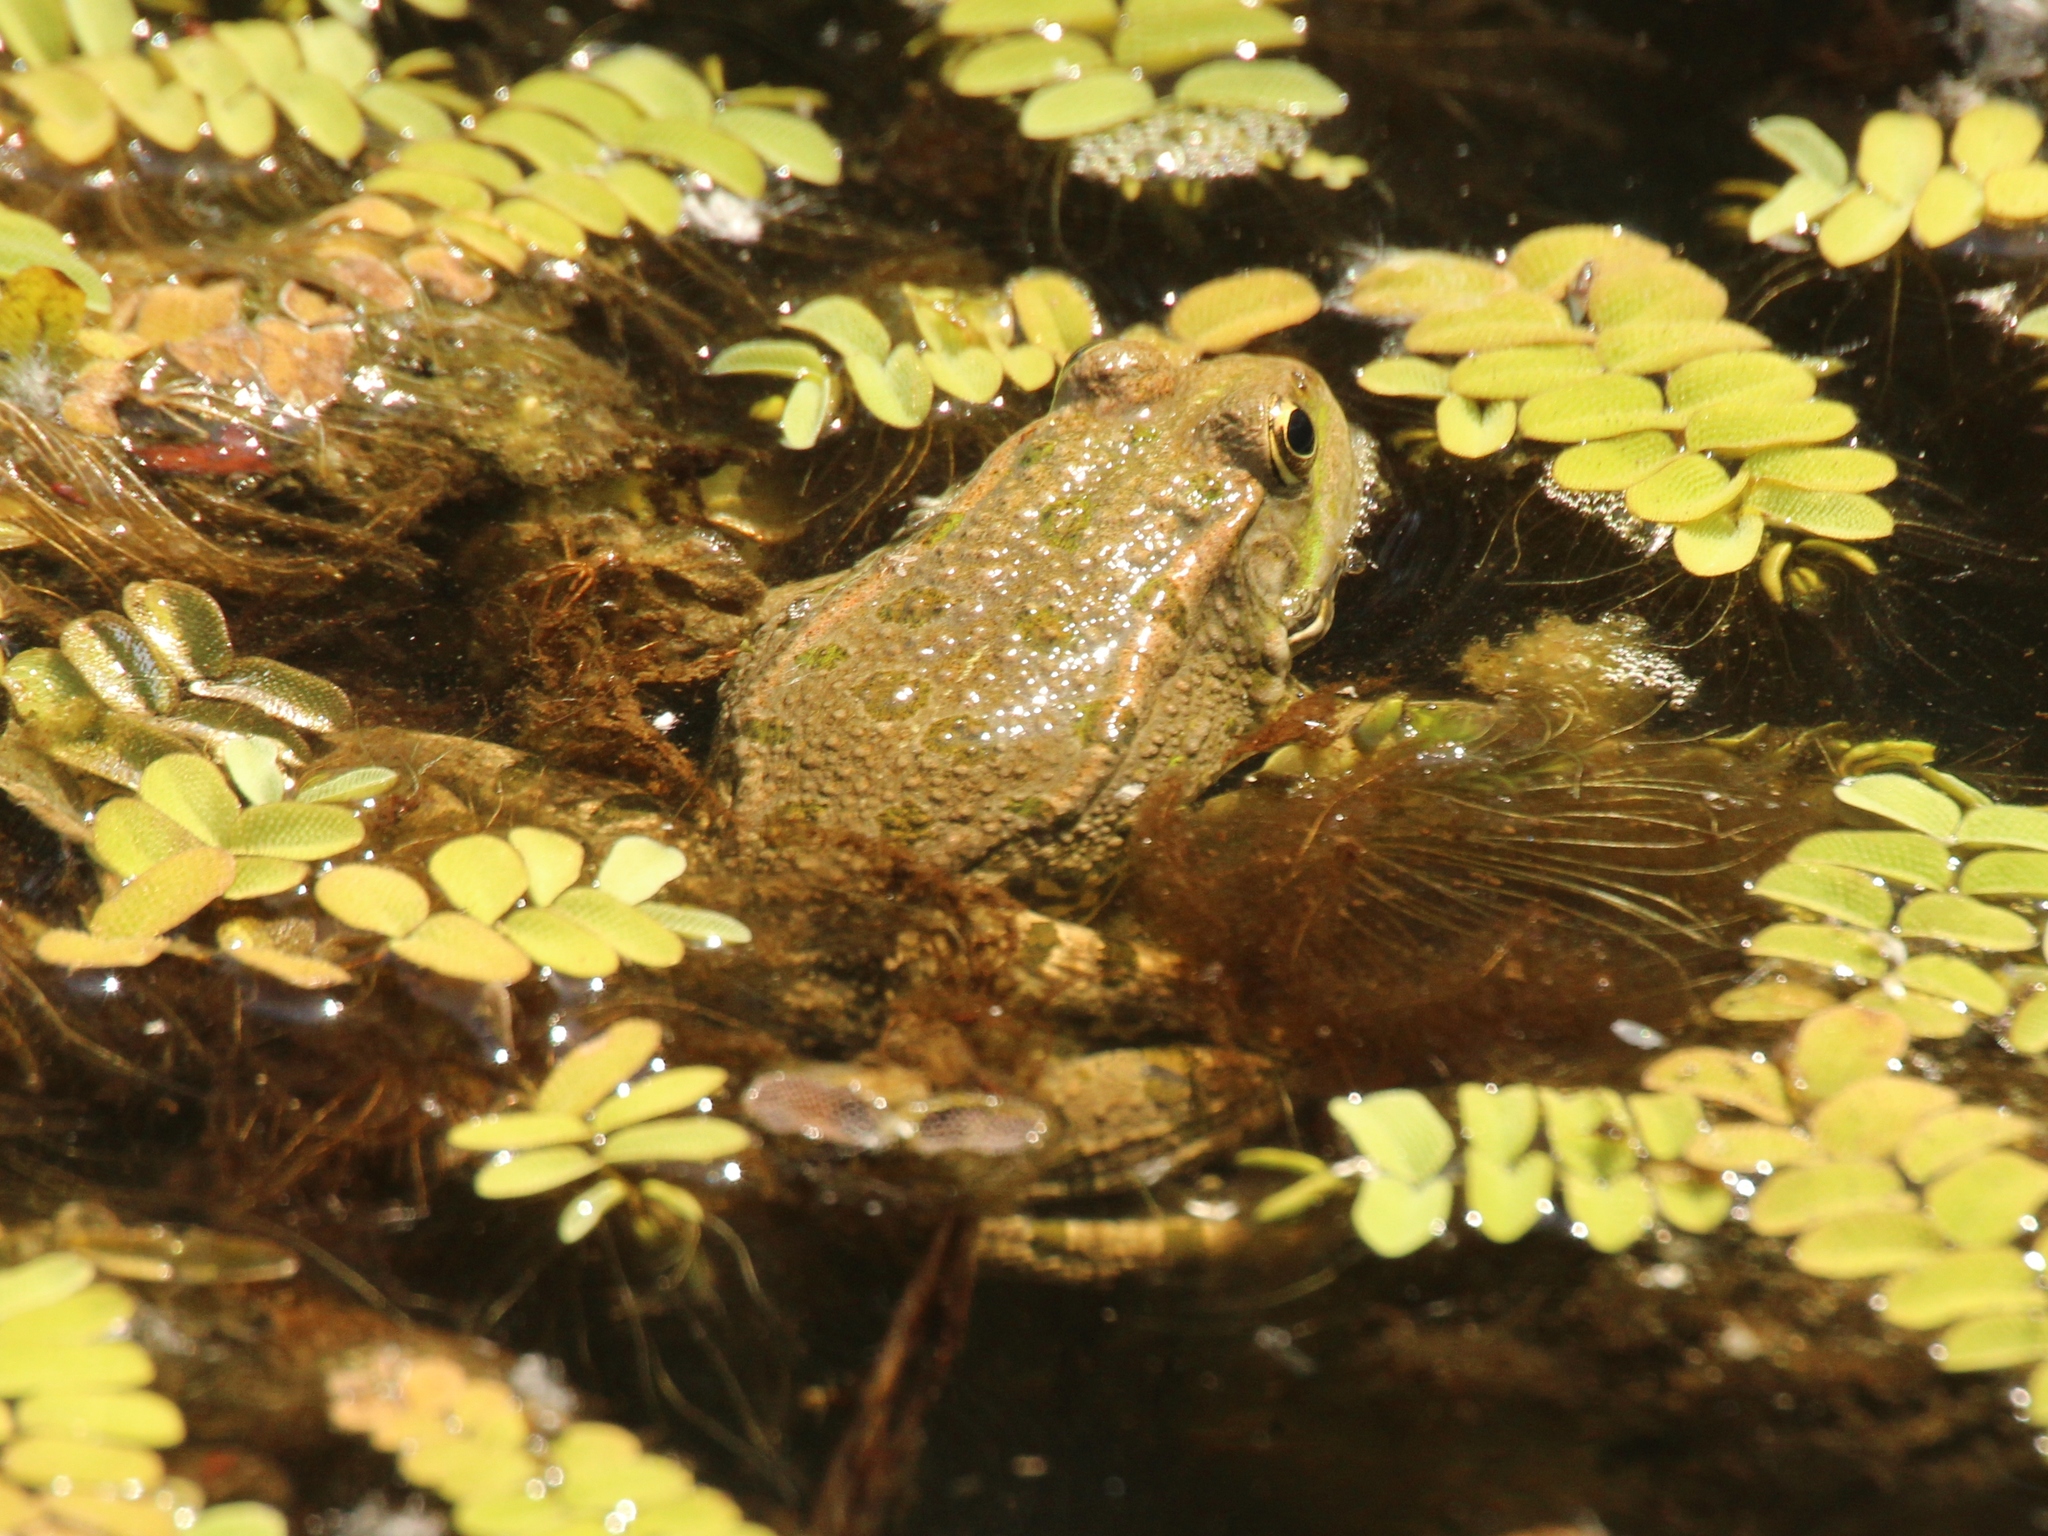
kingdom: Animalia
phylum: Chordata
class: Amphibia
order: Anura
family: Ranidae
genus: Pelophylax
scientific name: Pelophylax ridibundus
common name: Marsh frog
